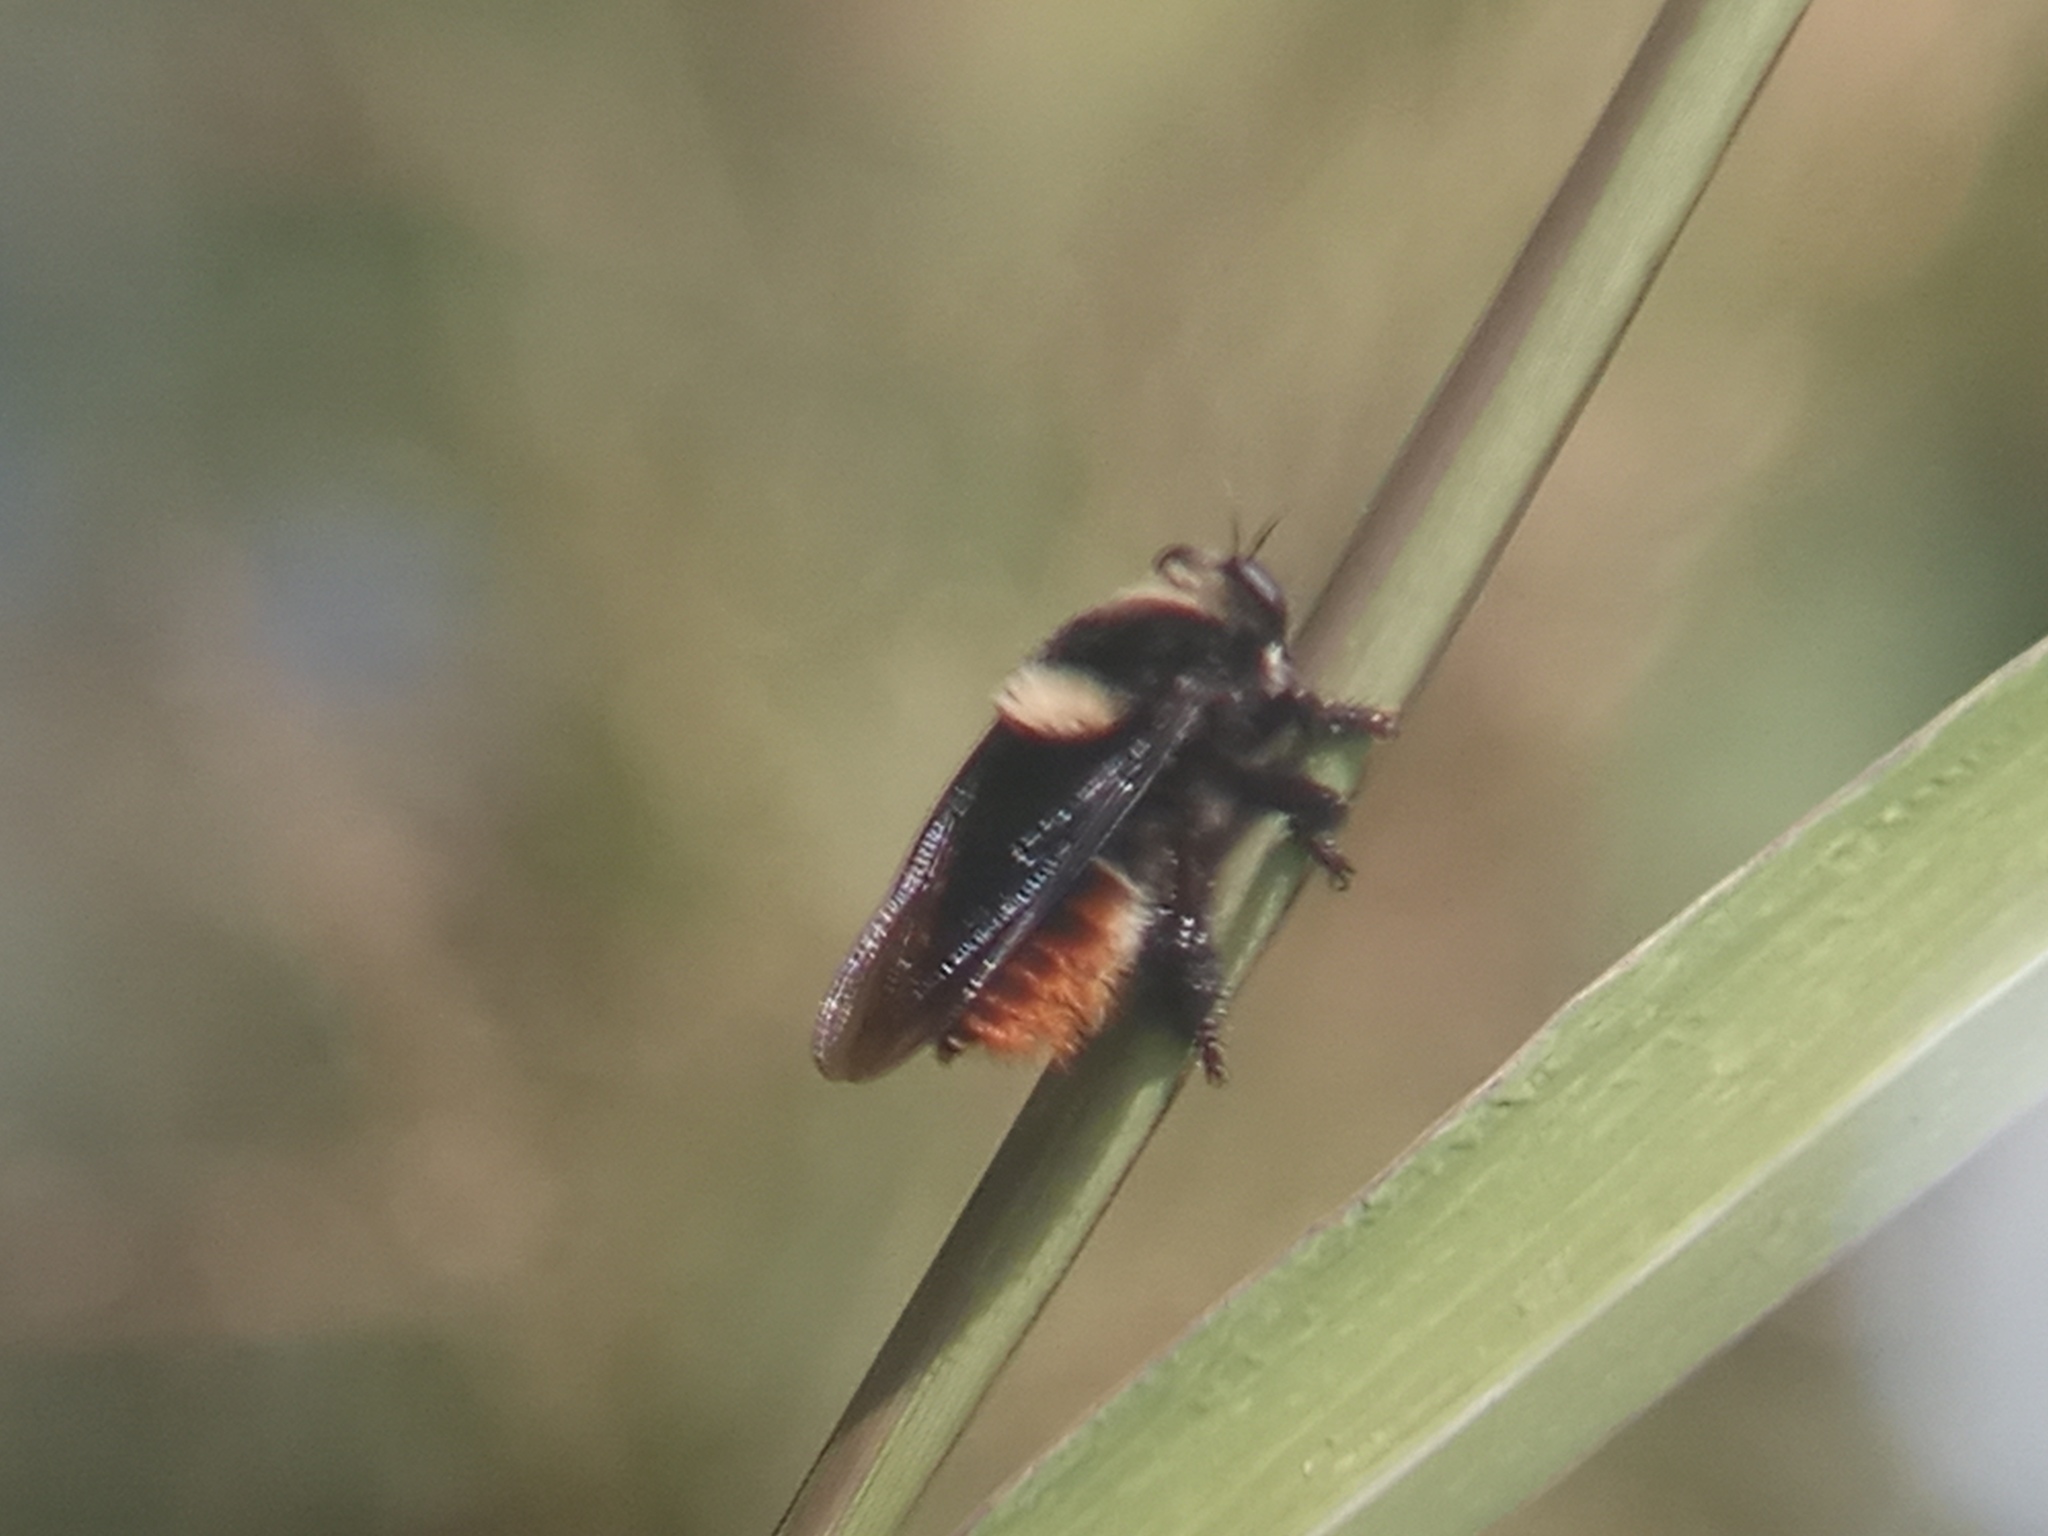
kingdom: Animalia
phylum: Arthropoda
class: Insecta
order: Diptera
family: Asilidae
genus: Mallophora
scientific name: Mallophora ruficauda
